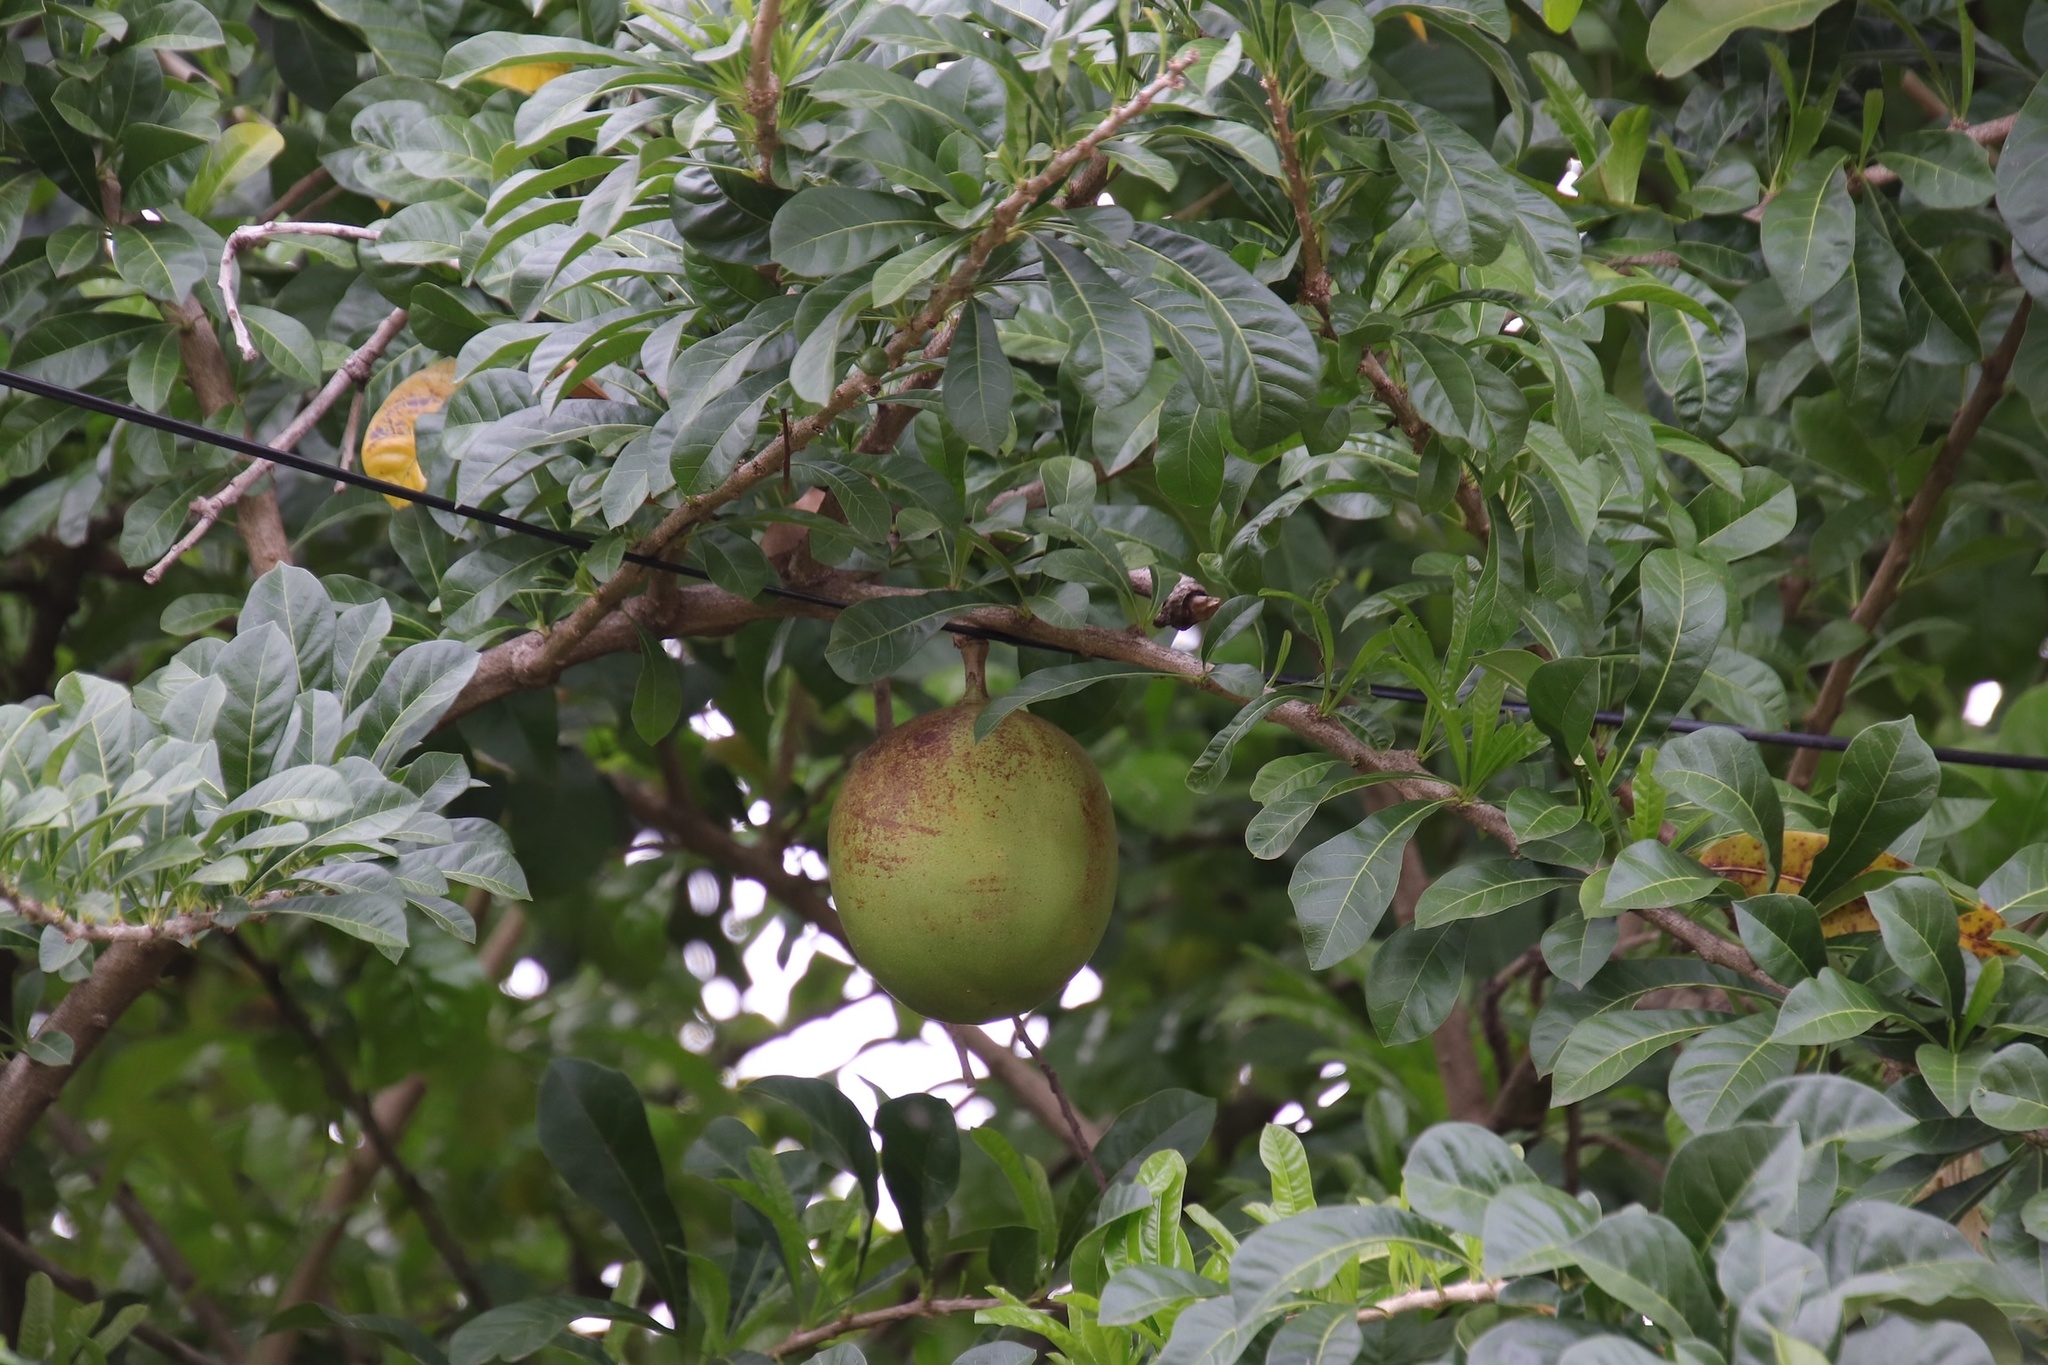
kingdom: Plantae
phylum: Tracheophyta
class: Magnoliopsida
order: Lamiales
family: Bignoniaceae
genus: Crescentia
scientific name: Crescentia cujete
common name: Calabash
